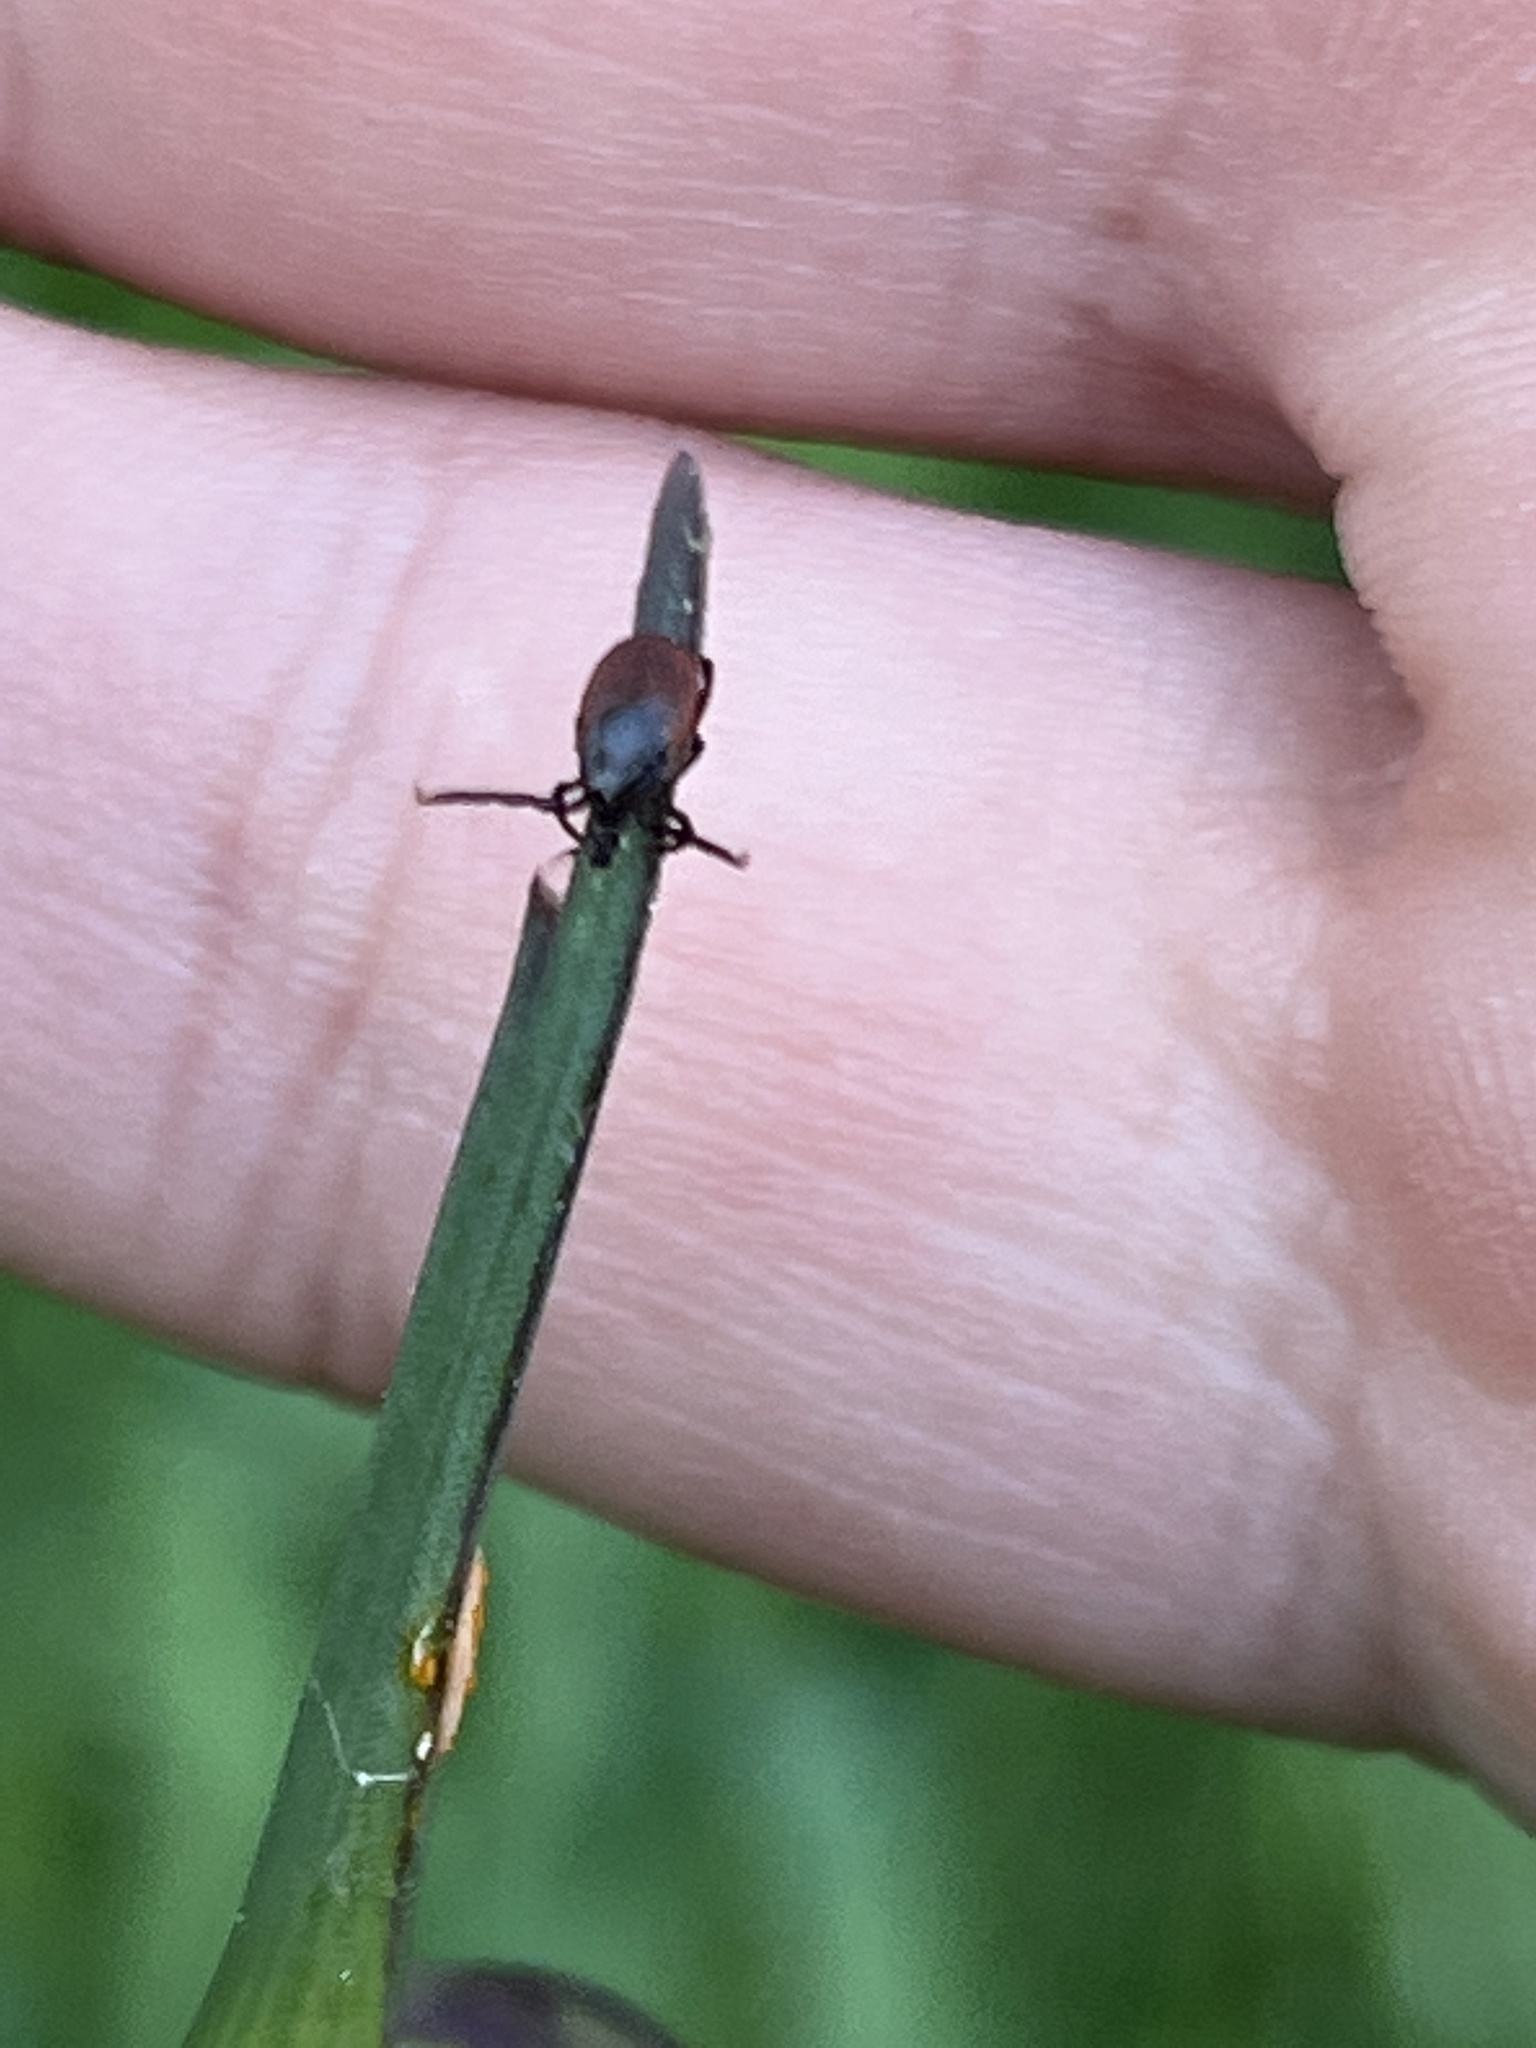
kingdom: Animalia
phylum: Arthropoda
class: Arachnida
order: Ixodida
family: Ixodidae
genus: Ixodes
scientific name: Ixodes ricinus
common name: Castor bean tick
